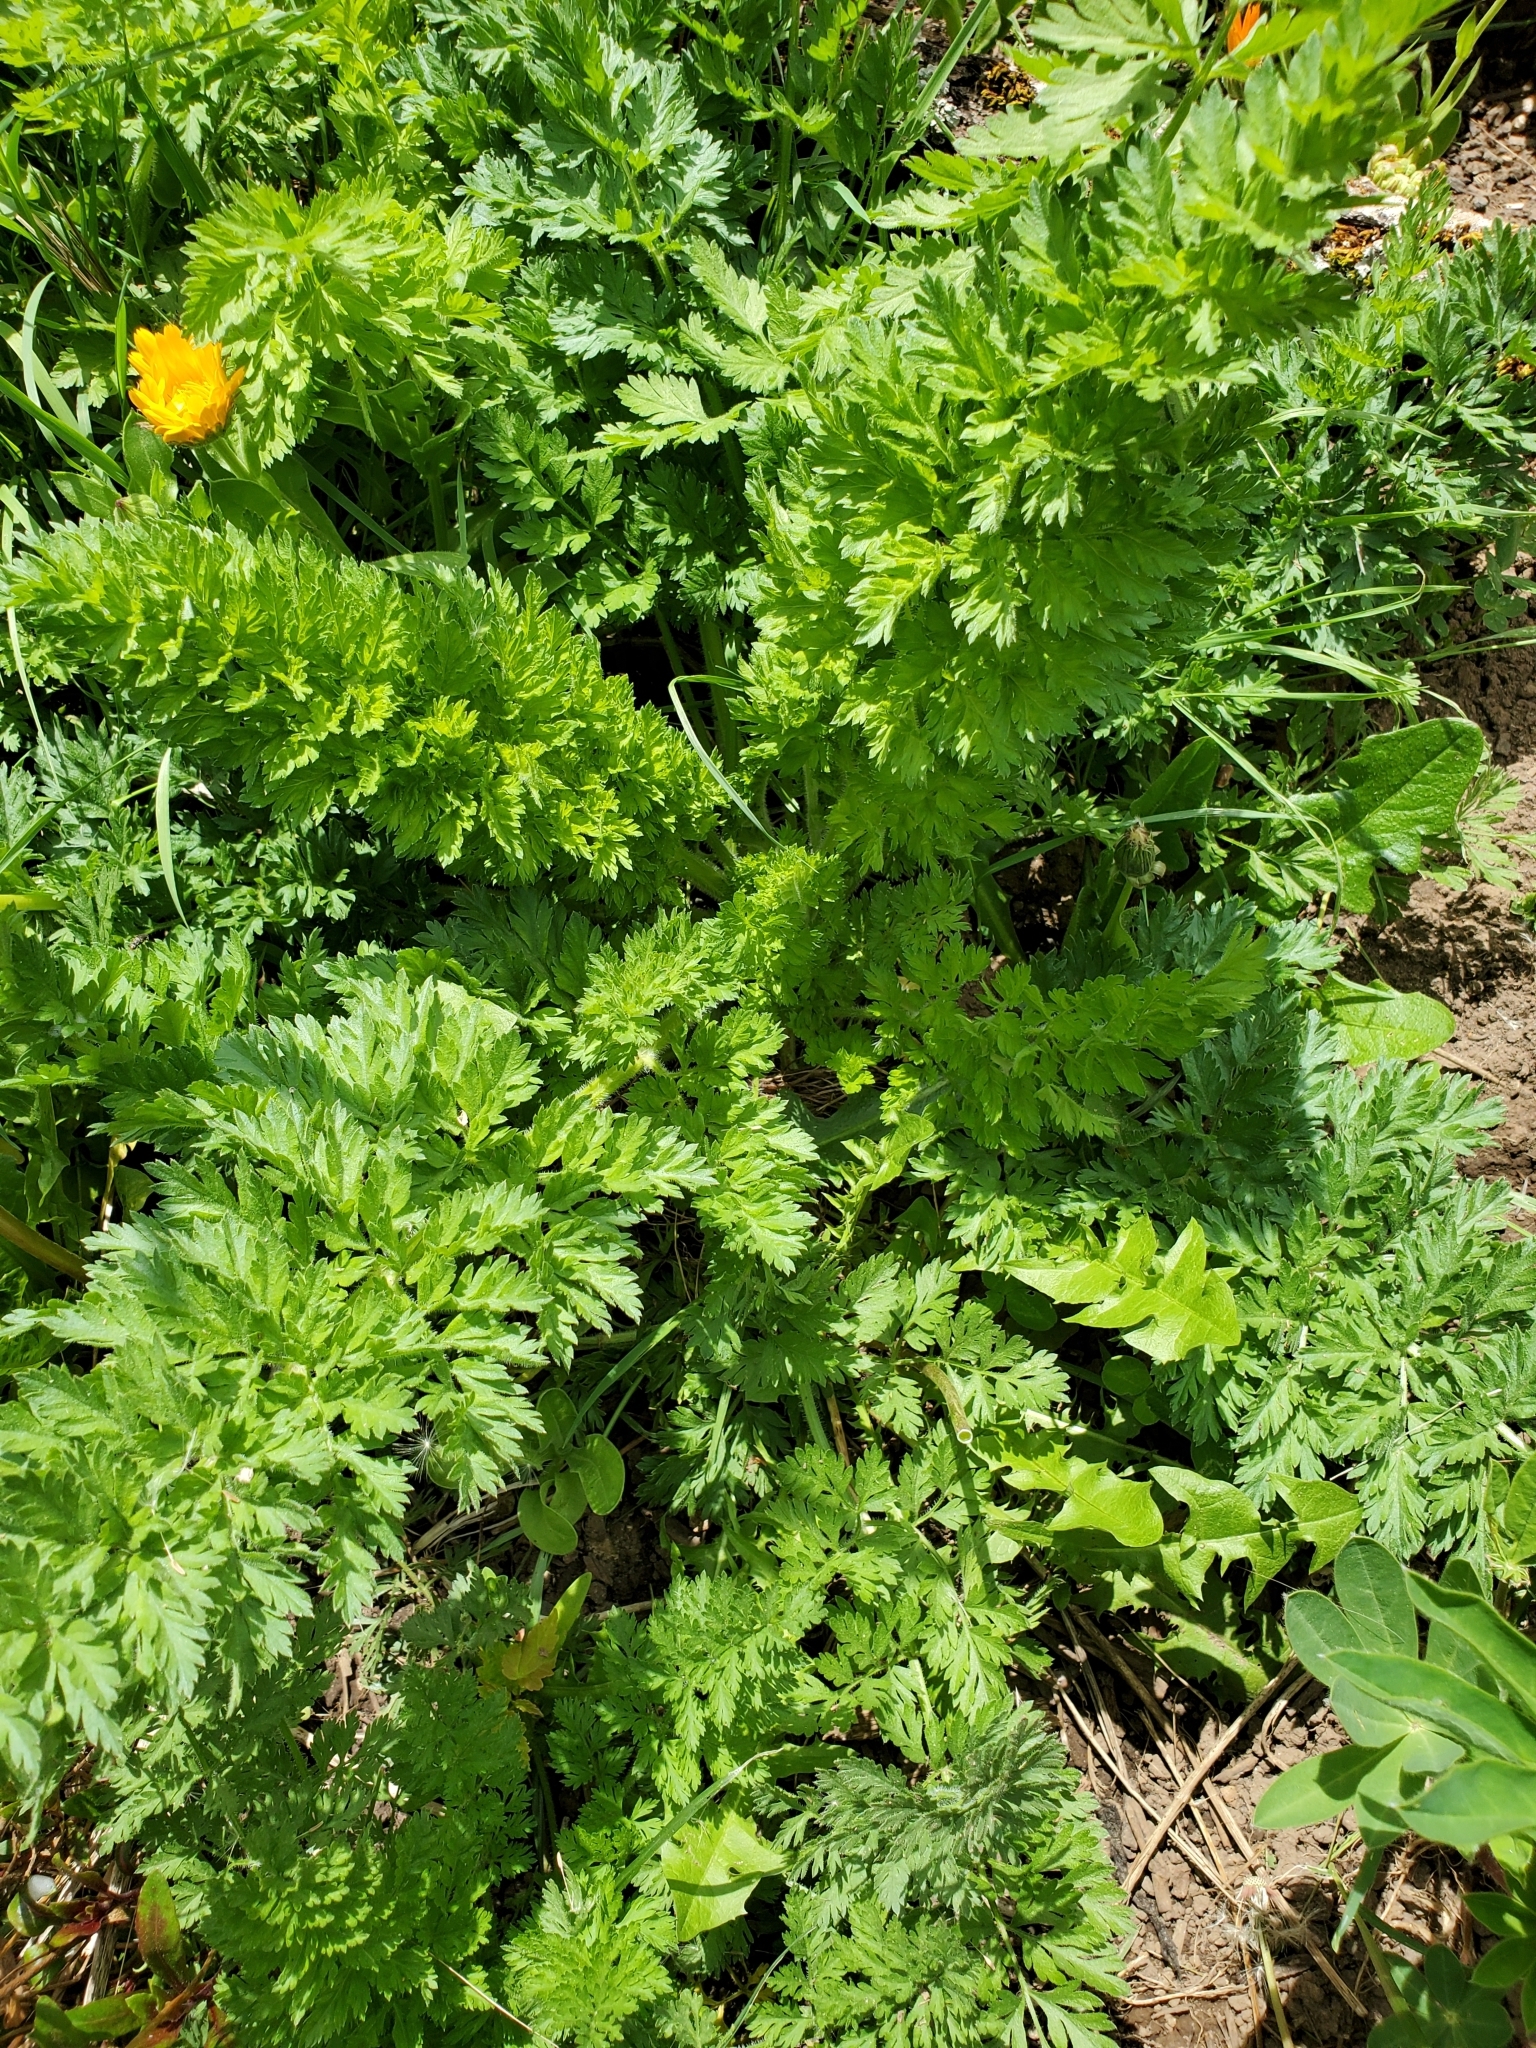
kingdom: Plantae
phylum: Tracheophyta
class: Magnoliopsida
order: Apiales
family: Apiaceae
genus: Daucus
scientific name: Daucus carota
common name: Wild carrot
